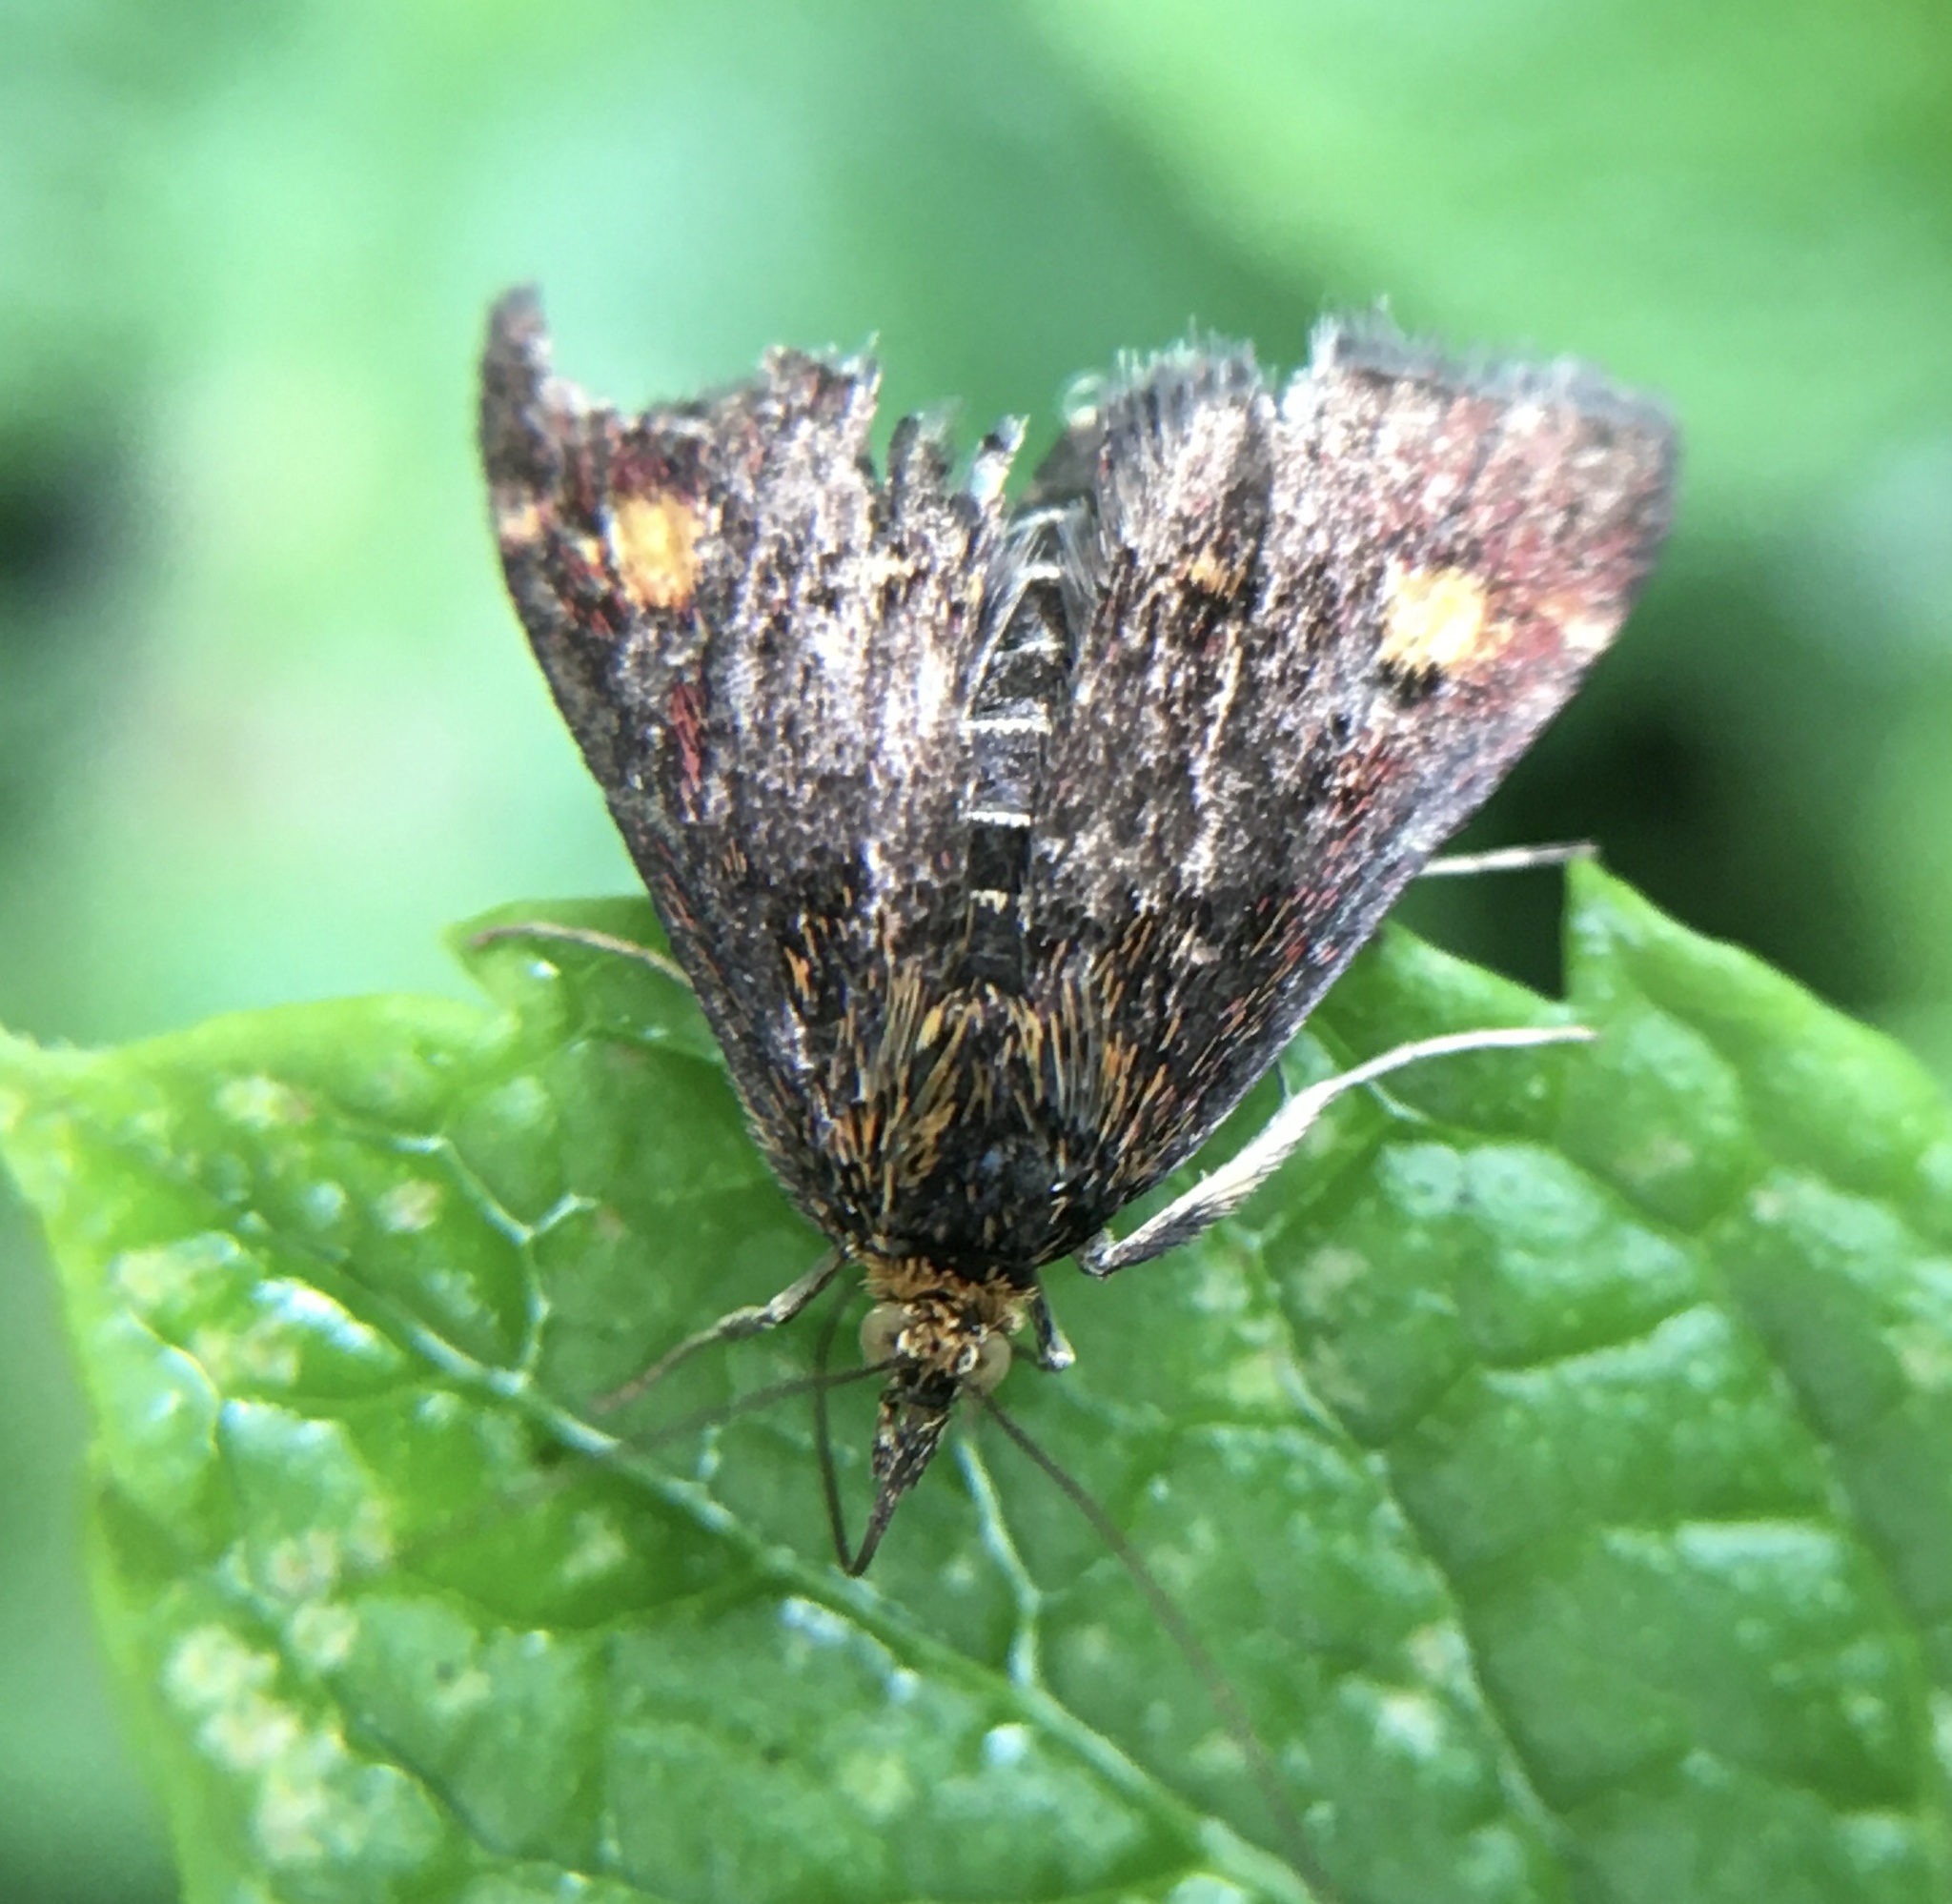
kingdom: Animalia
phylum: Arthropoda
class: Insecta
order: Lepidoptera
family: Crambidae
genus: Pyrausta
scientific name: Pyrausta aurata
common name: Small purple & gold
